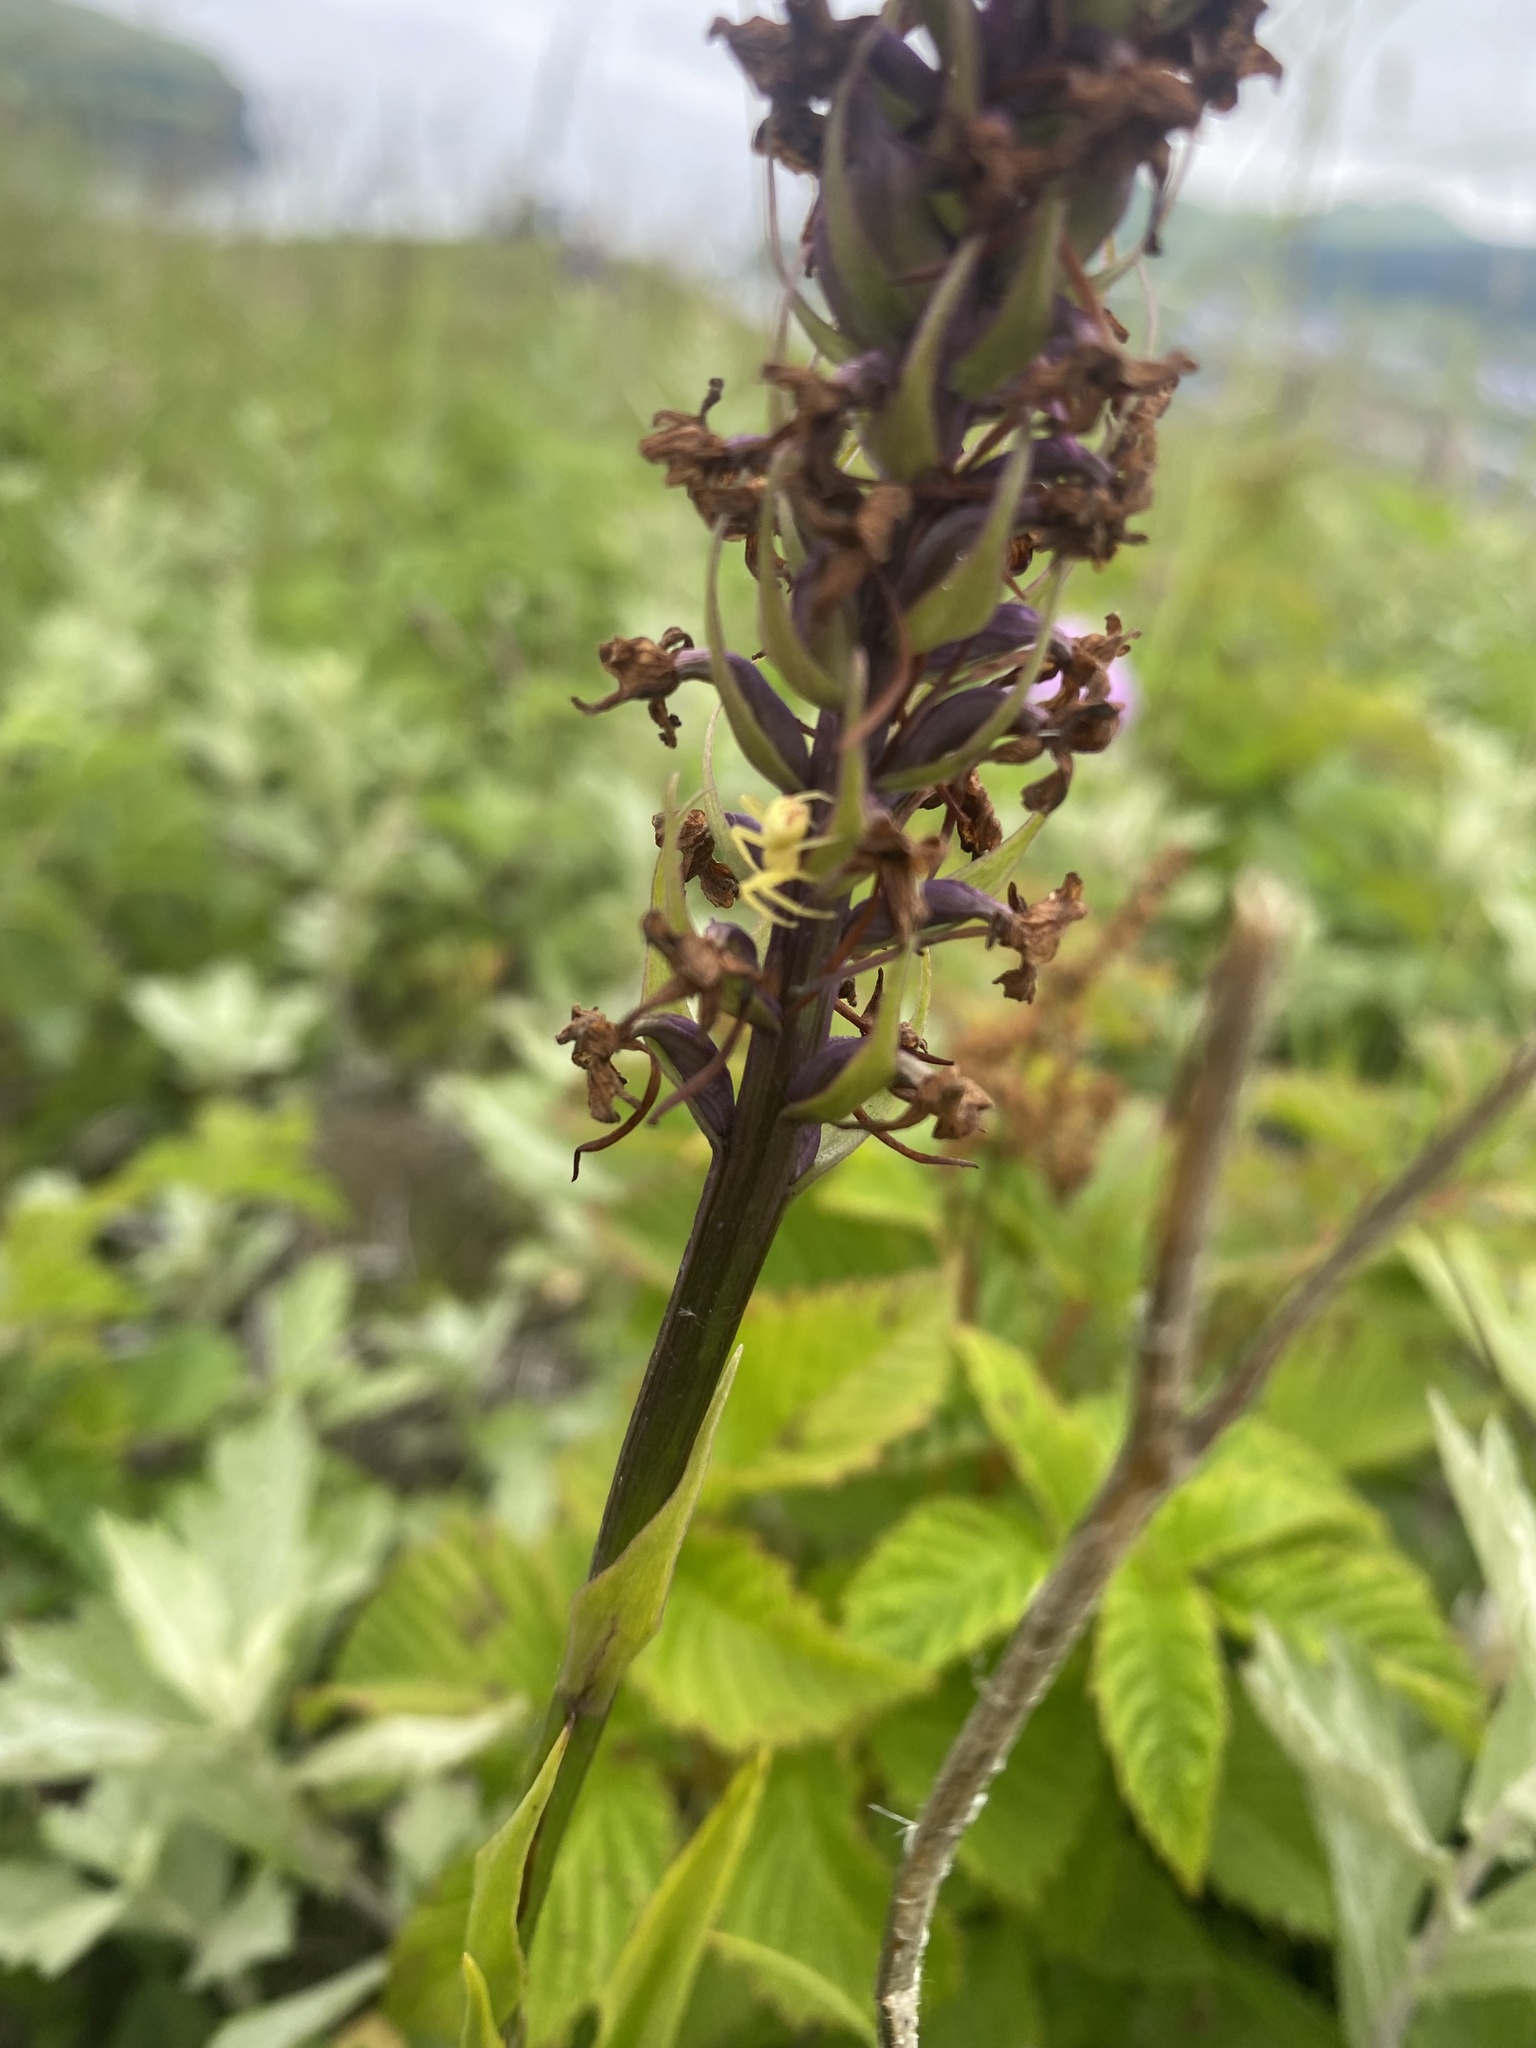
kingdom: Plantae
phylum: Tracheophyta
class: Liliopsida
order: Asparagales
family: Orchidaceae
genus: Gymnadenia
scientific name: Gymnadenia conopsea
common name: Fragrant orchid
